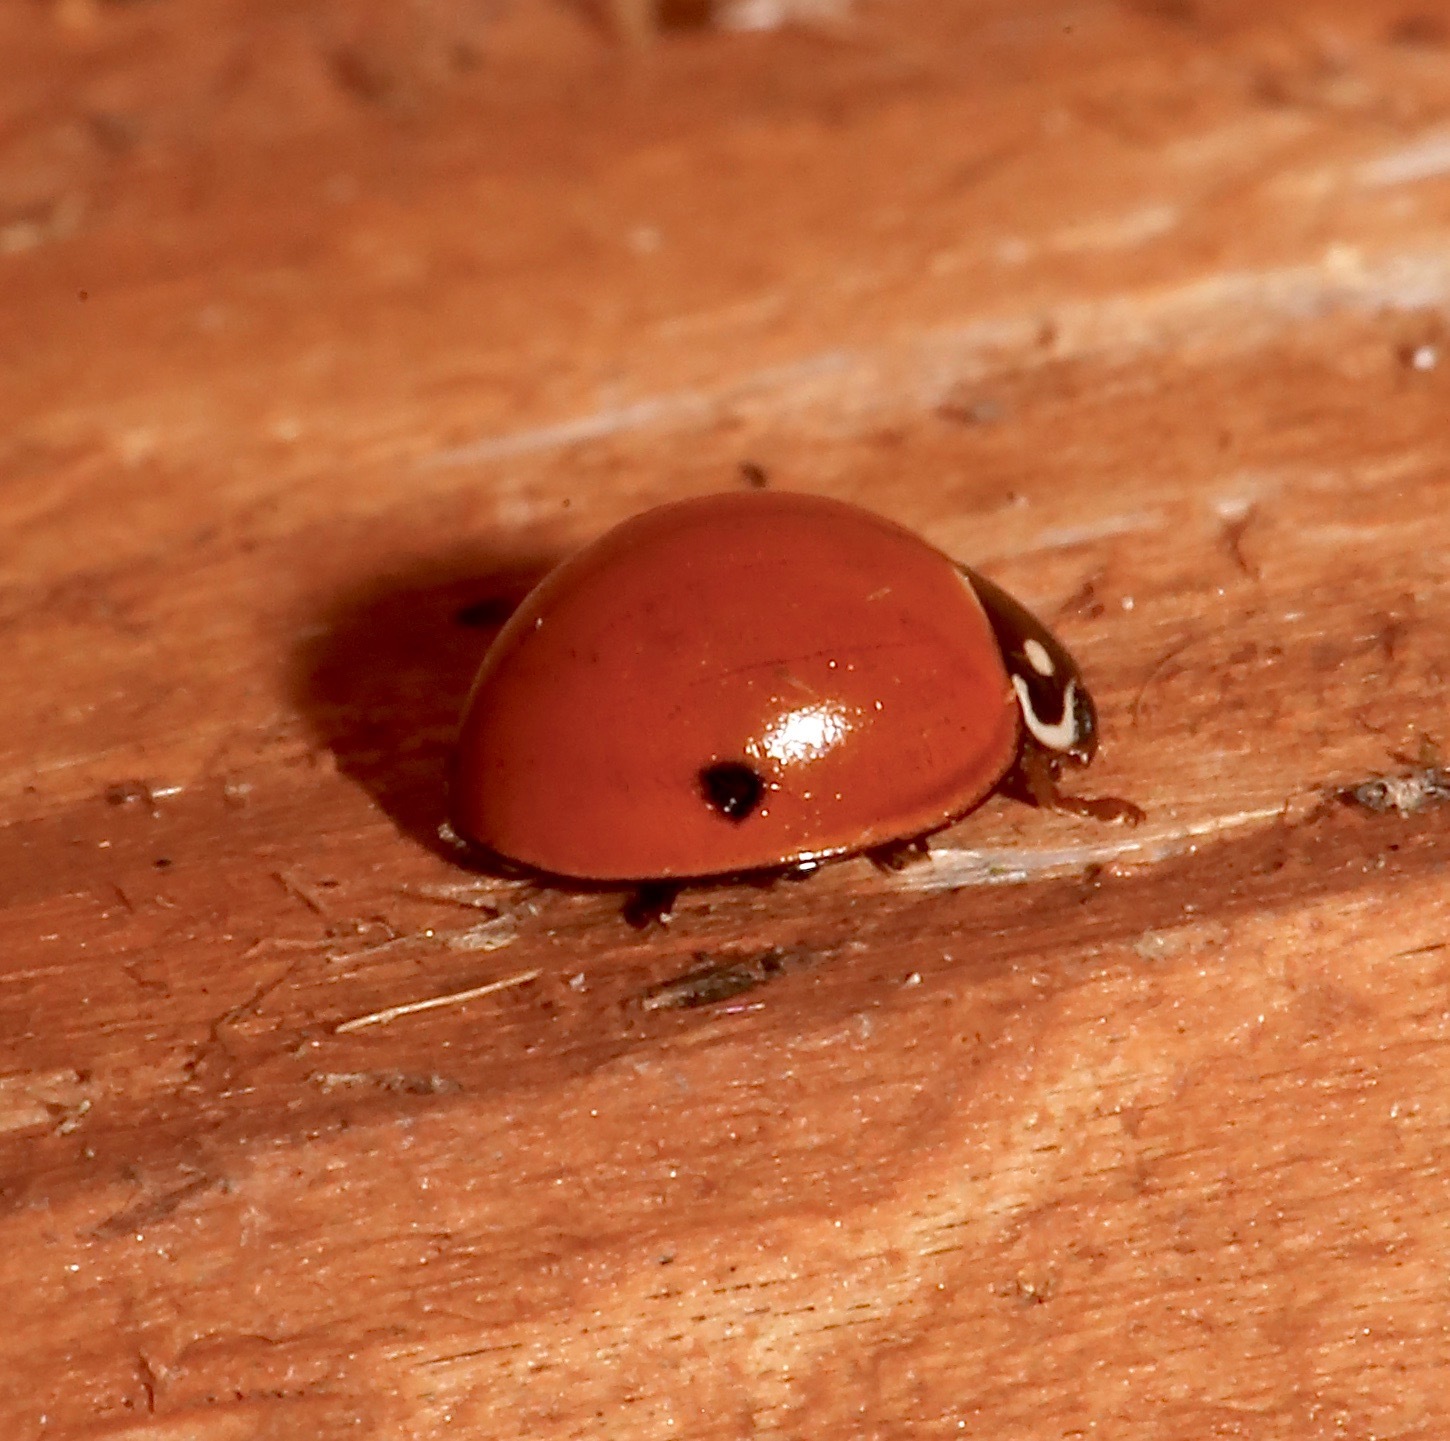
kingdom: Animalia
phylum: Arthropoda
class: Insecta
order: Coleoptera
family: Coccinellidae
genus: Cycloneda
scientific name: Cycloneda sanguinea
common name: Ladybird beetle
